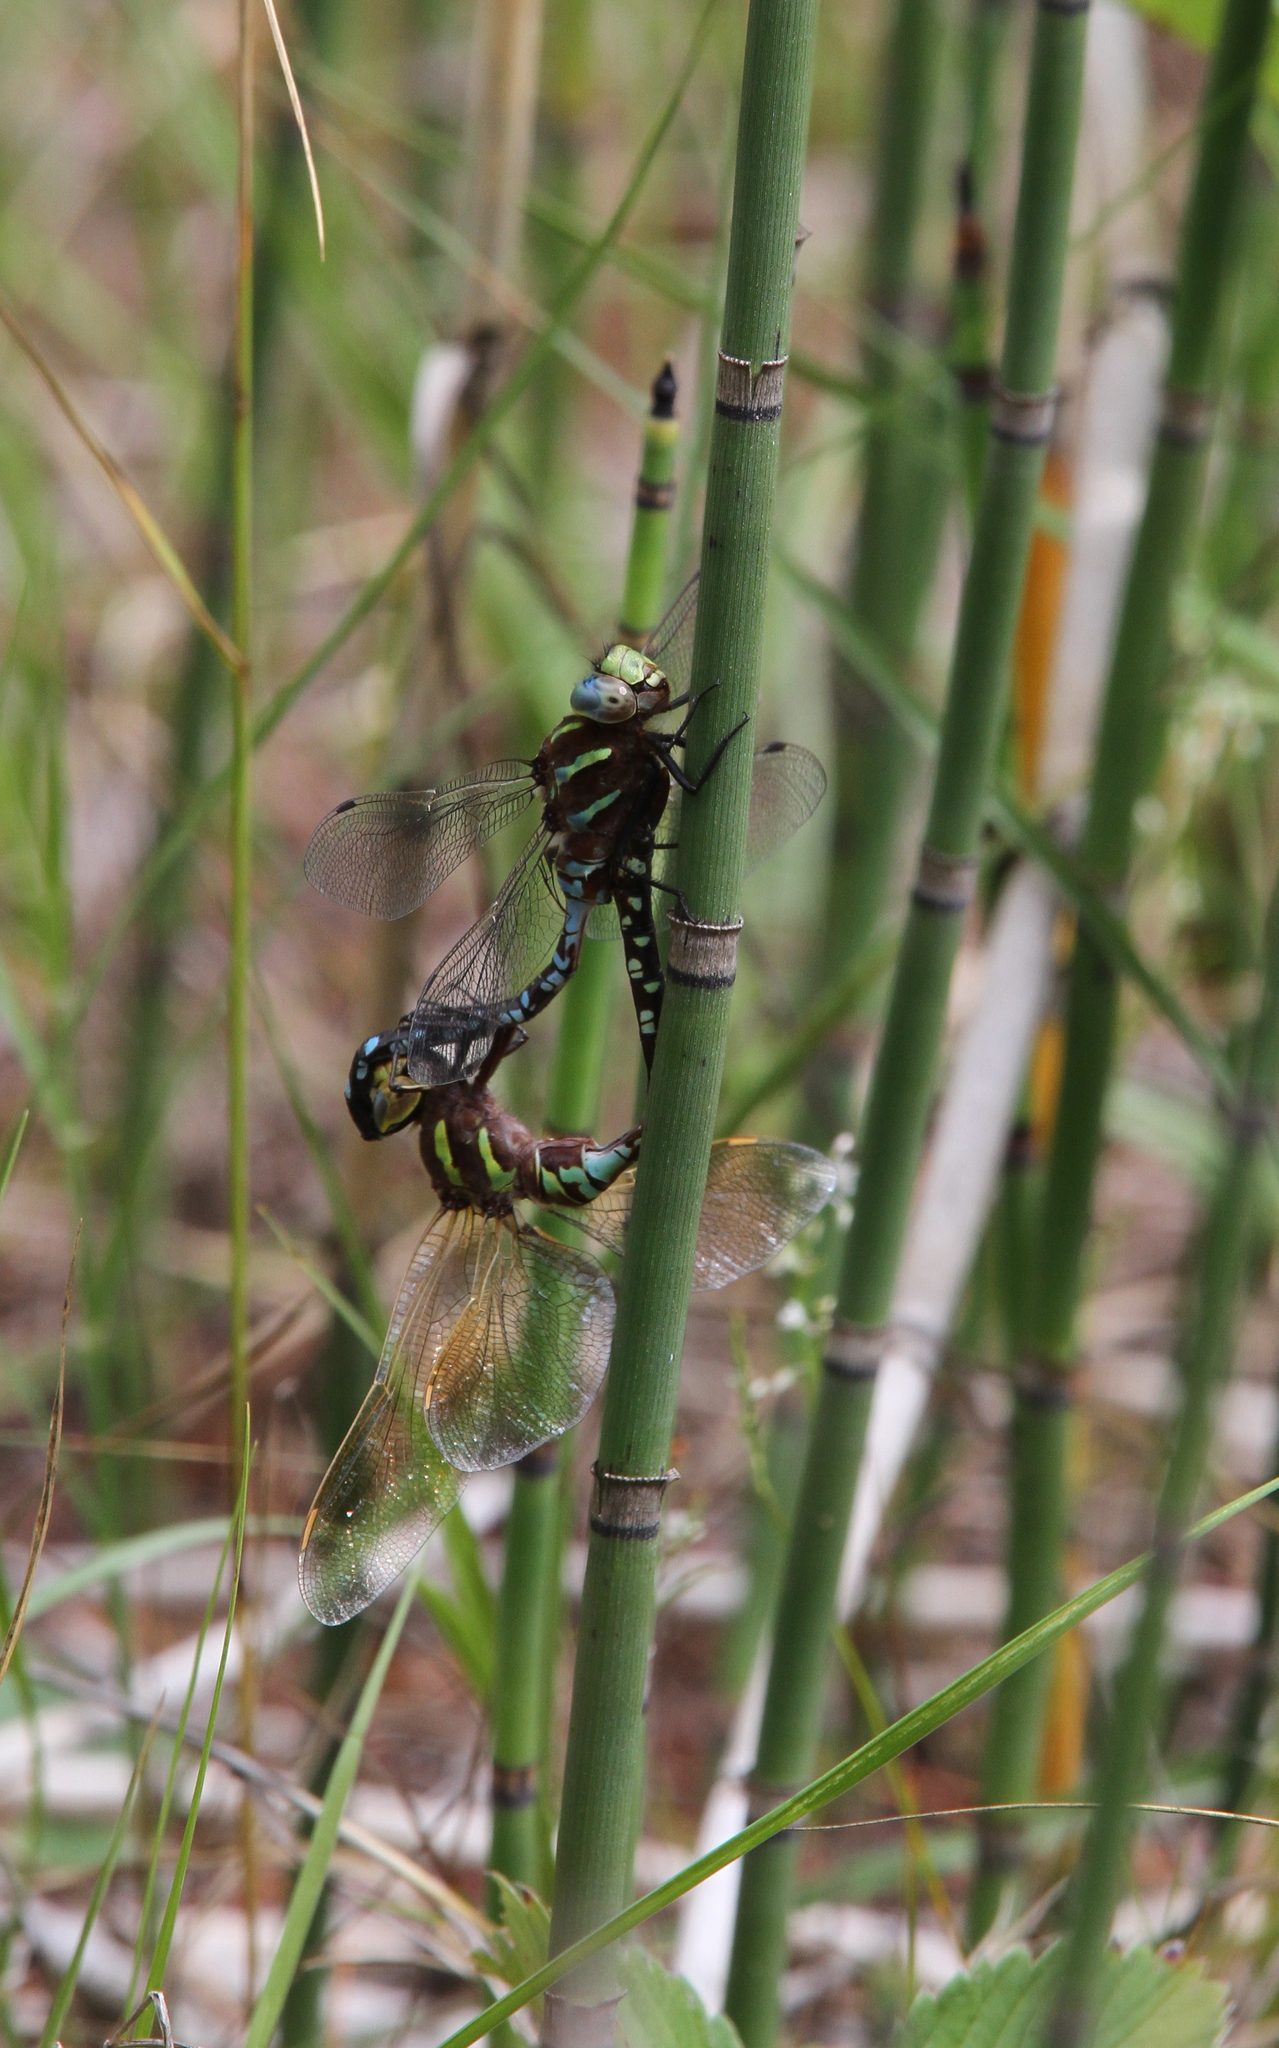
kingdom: Animalia
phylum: Arthropoda
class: Insecta
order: Odonata
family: Aeshnidae
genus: Aeshna
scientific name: Aeshna constricta
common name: Lance-tipped darner
